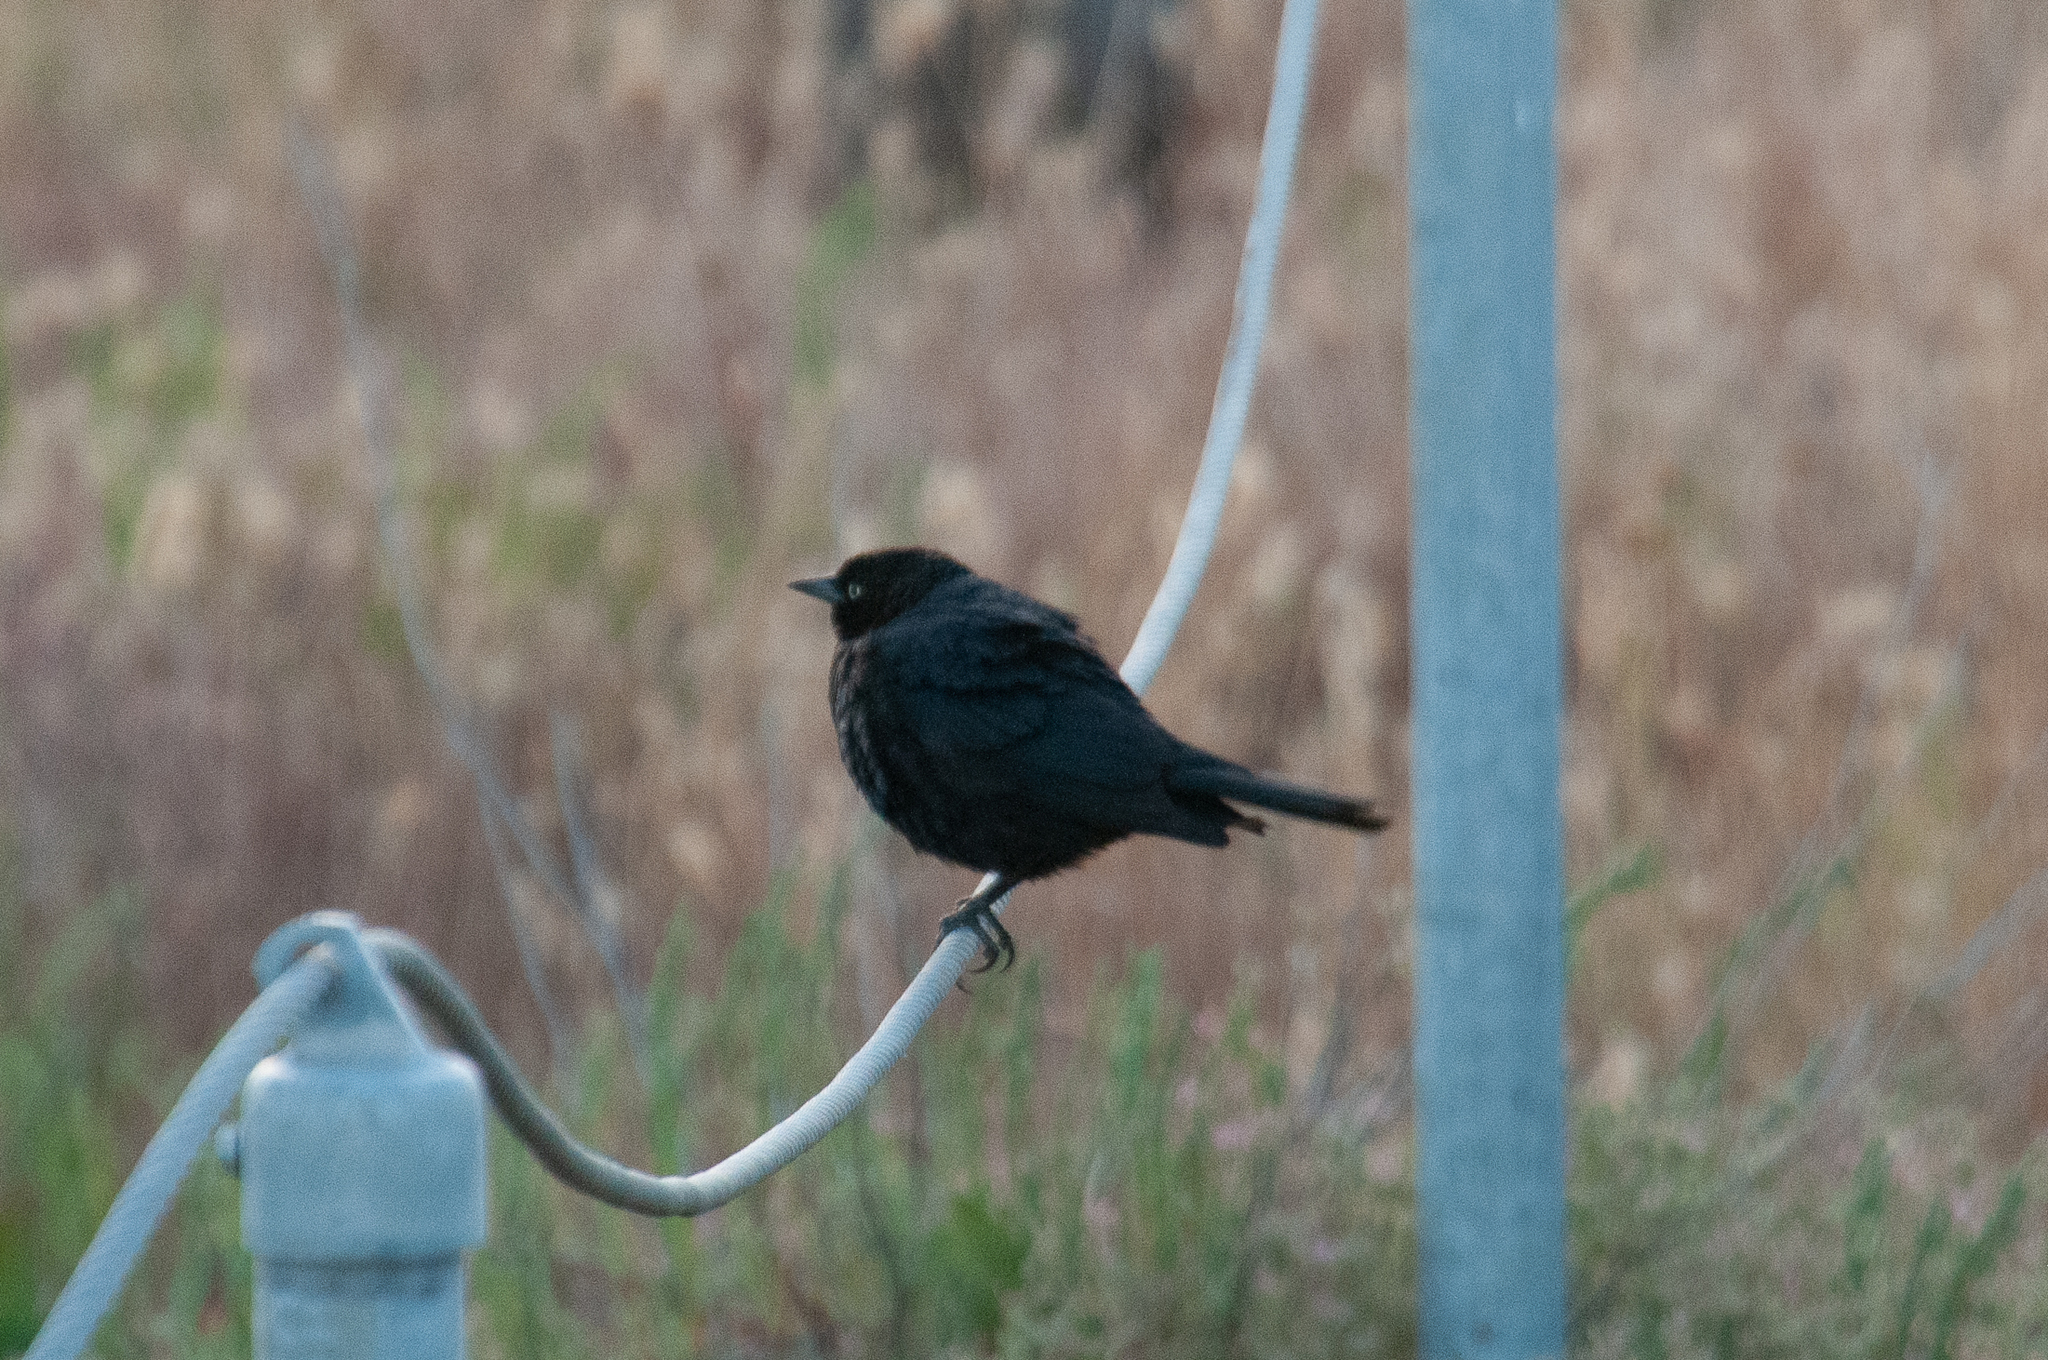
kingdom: Animalia
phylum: Chordata
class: Aves
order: Passeriformes
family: Icteridae
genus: Euphagus
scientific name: Euphagus cyanocephalus
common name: Brewer's blackbird
